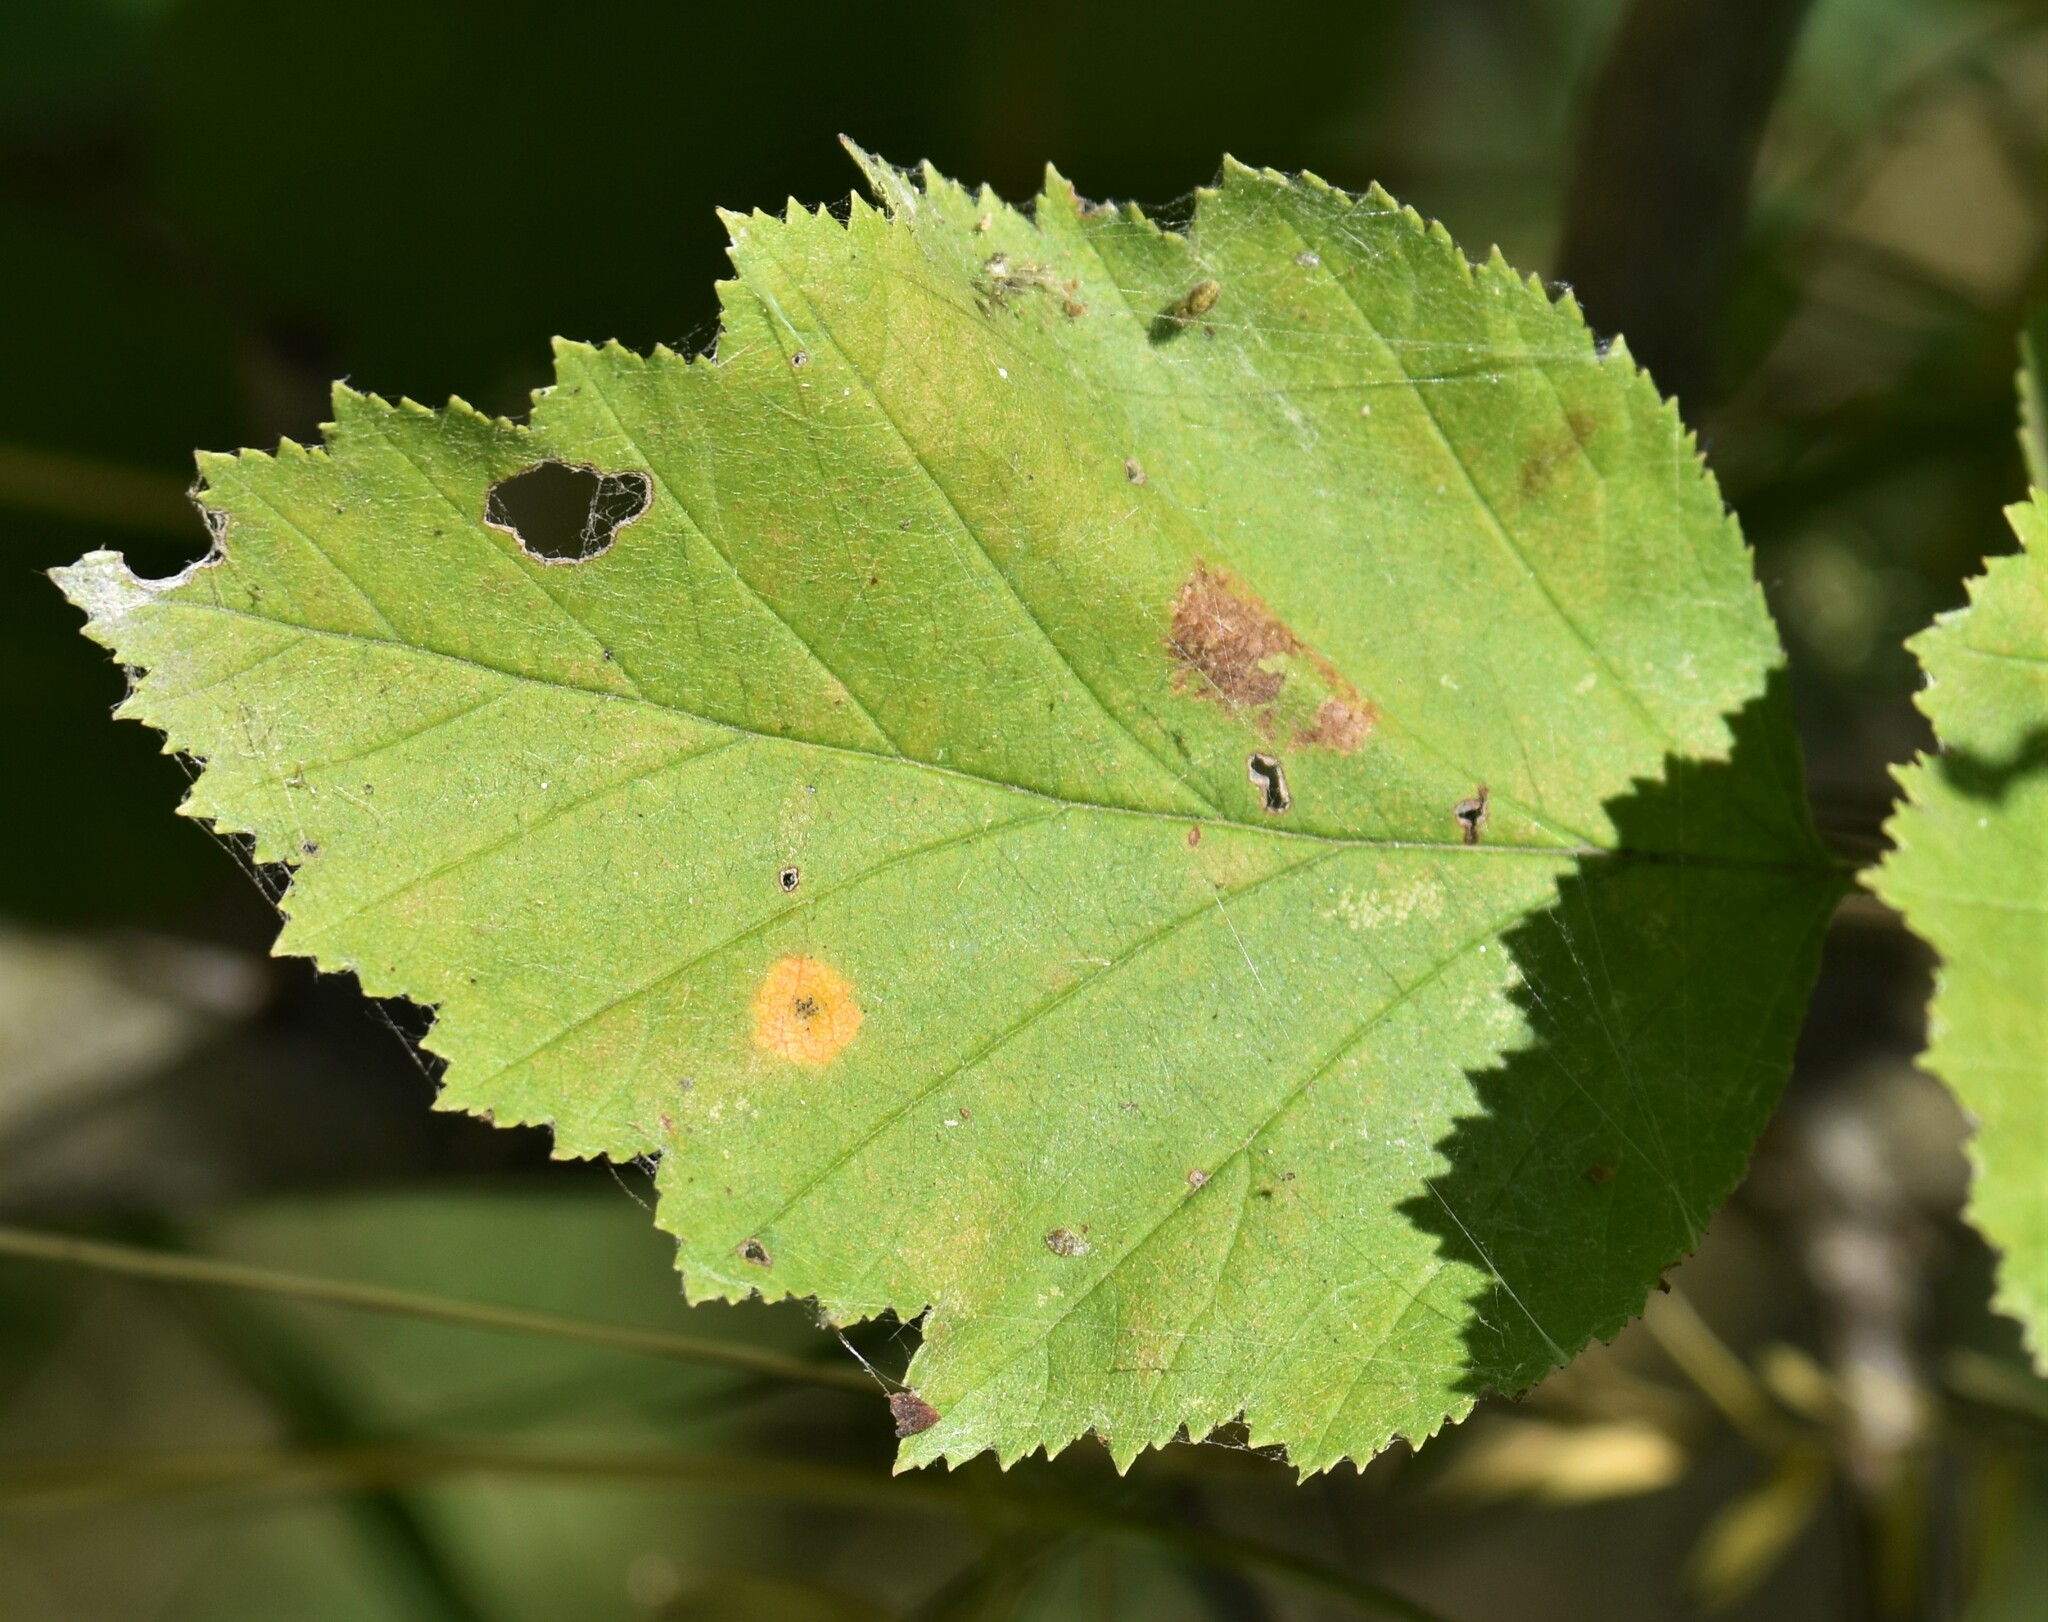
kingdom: Plantae
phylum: Tracheophyta
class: Magnoliopsida
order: Rosales
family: Rosaceae
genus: Crataegus
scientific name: Crataegus submollis
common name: Hairy cockspurthorn
